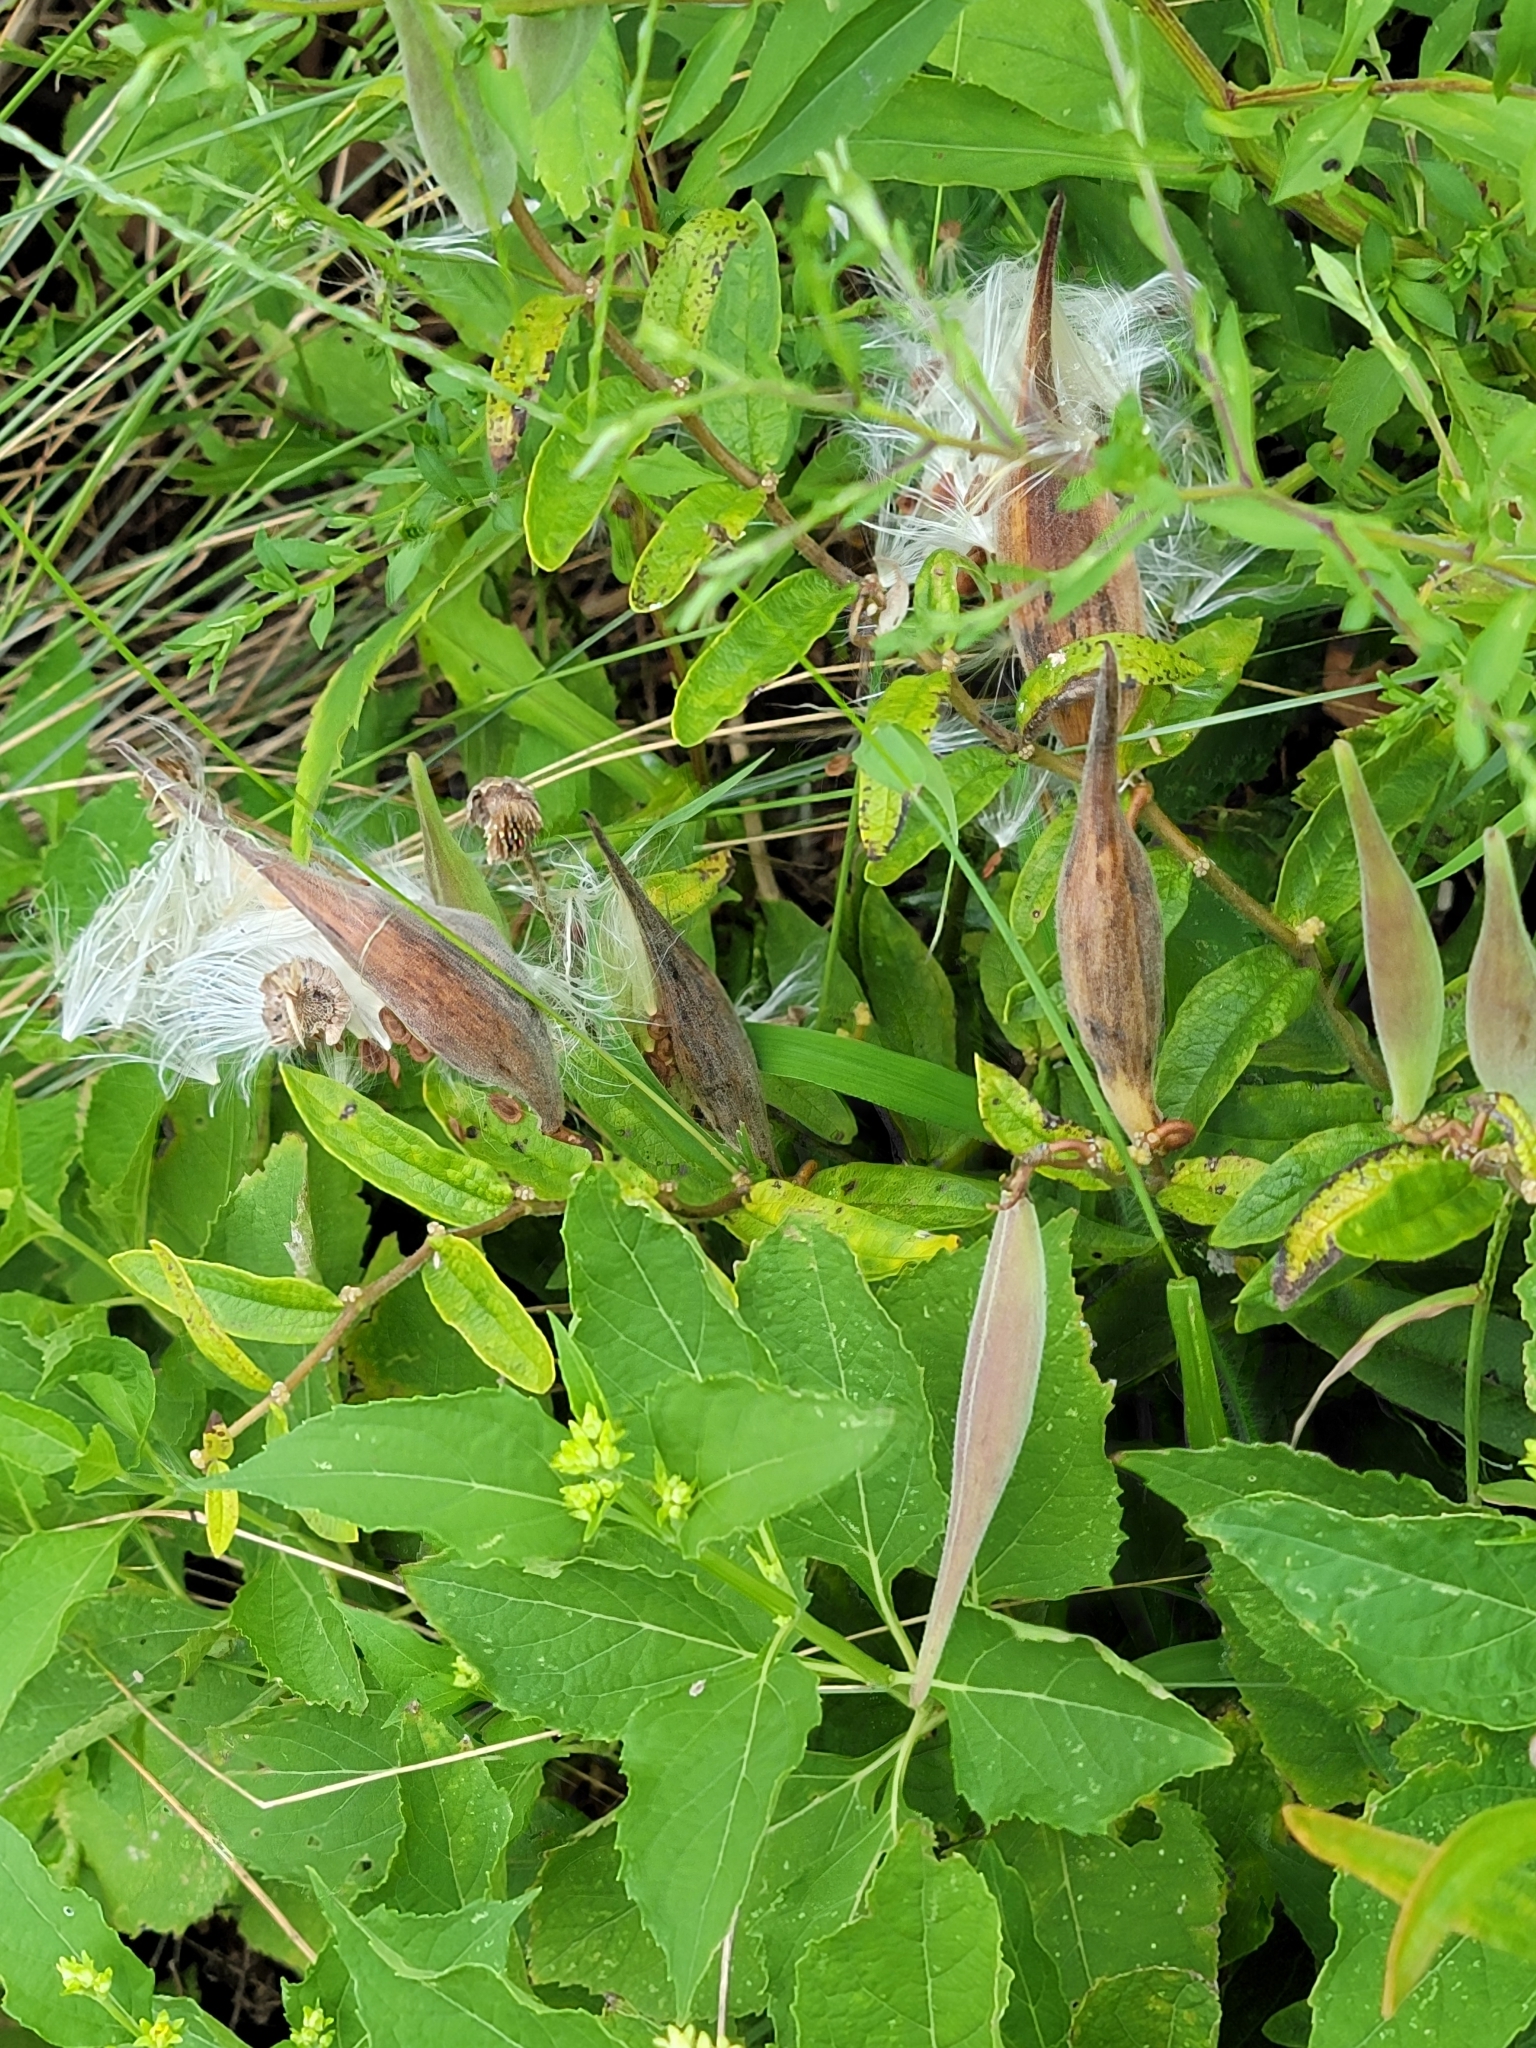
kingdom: Plantae
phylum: Tracheophyta
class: Magnoliopsida
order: Gentianales
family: Apocynaceae
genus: Asclepias
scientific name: Asclepias tuberosa
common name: Butterfly milkweed
